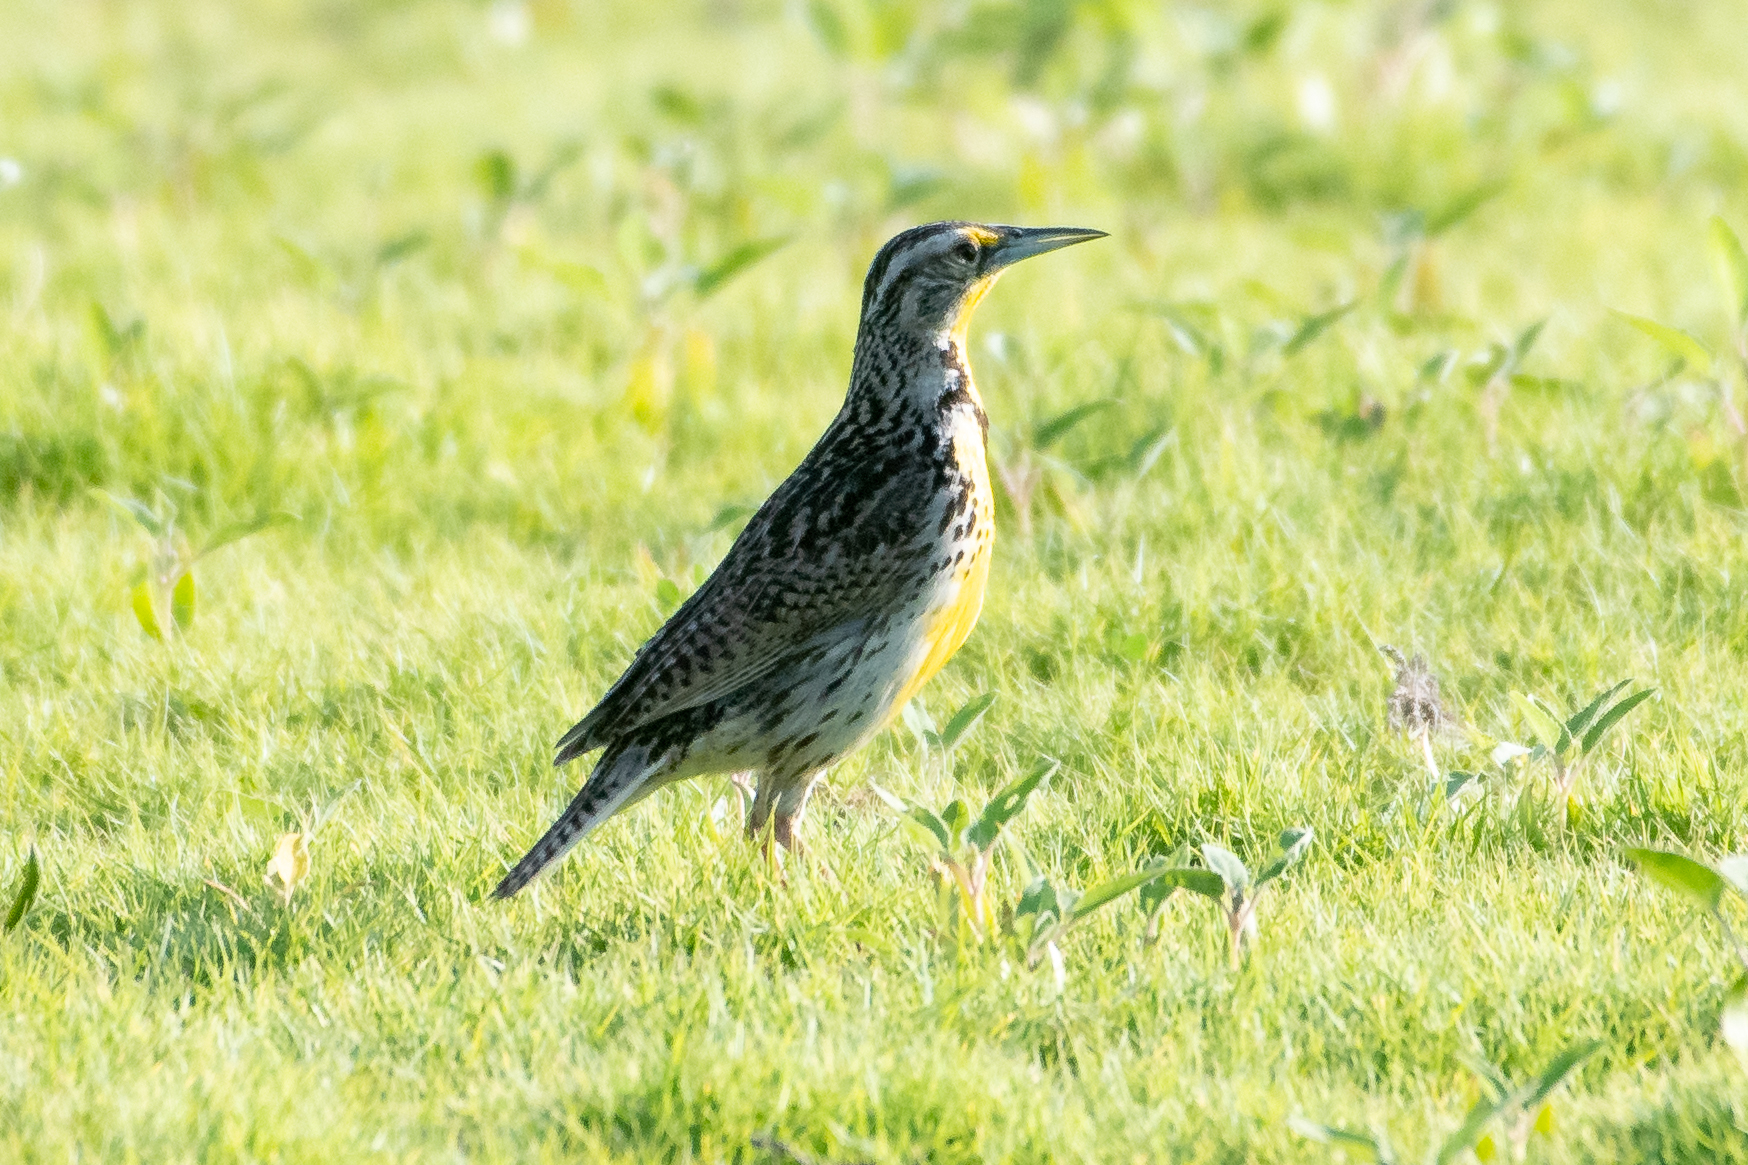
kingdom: Animalia
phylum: Chordata
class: Aves
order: Passeriformes
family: Icteridae
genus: Sturnella
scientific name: Sturnella neglecta
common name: Western meadowlark
